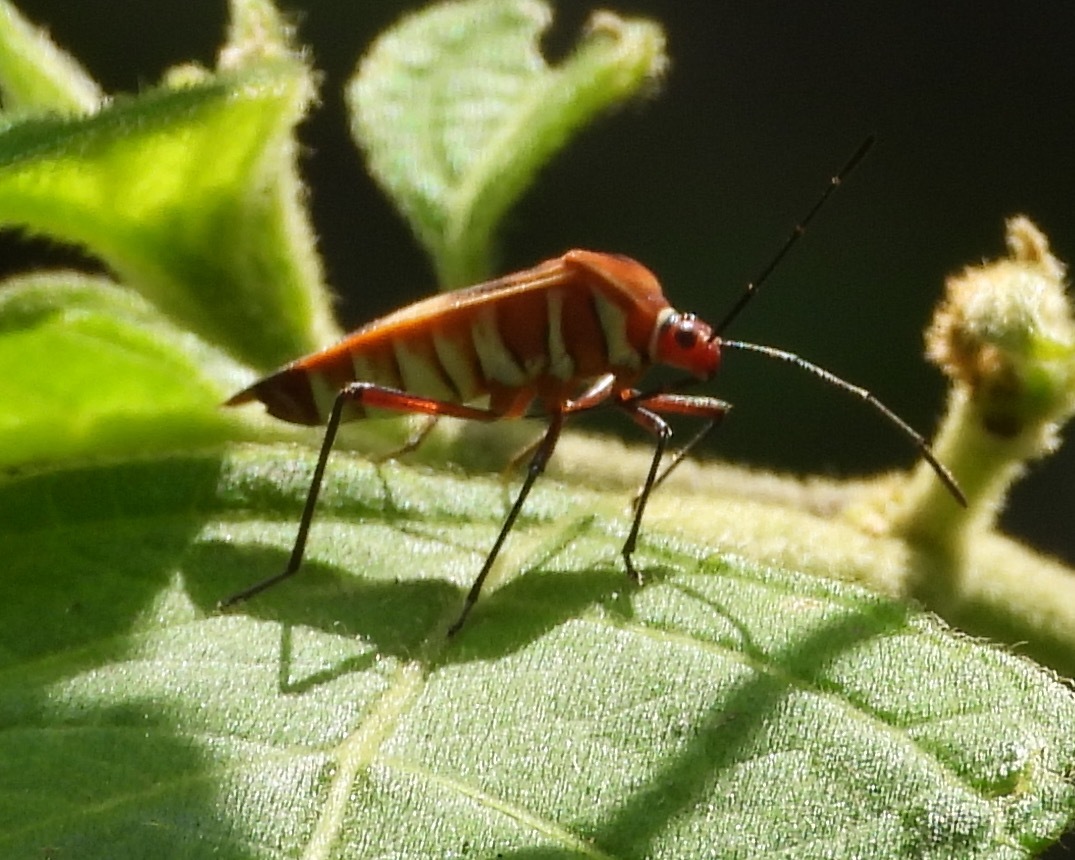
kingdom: Animalia
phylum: Arthropoda
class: Insecta
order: Hemiptera
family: Coreidae
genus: Hypselonotus
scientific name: Hypselonotus interruptus
